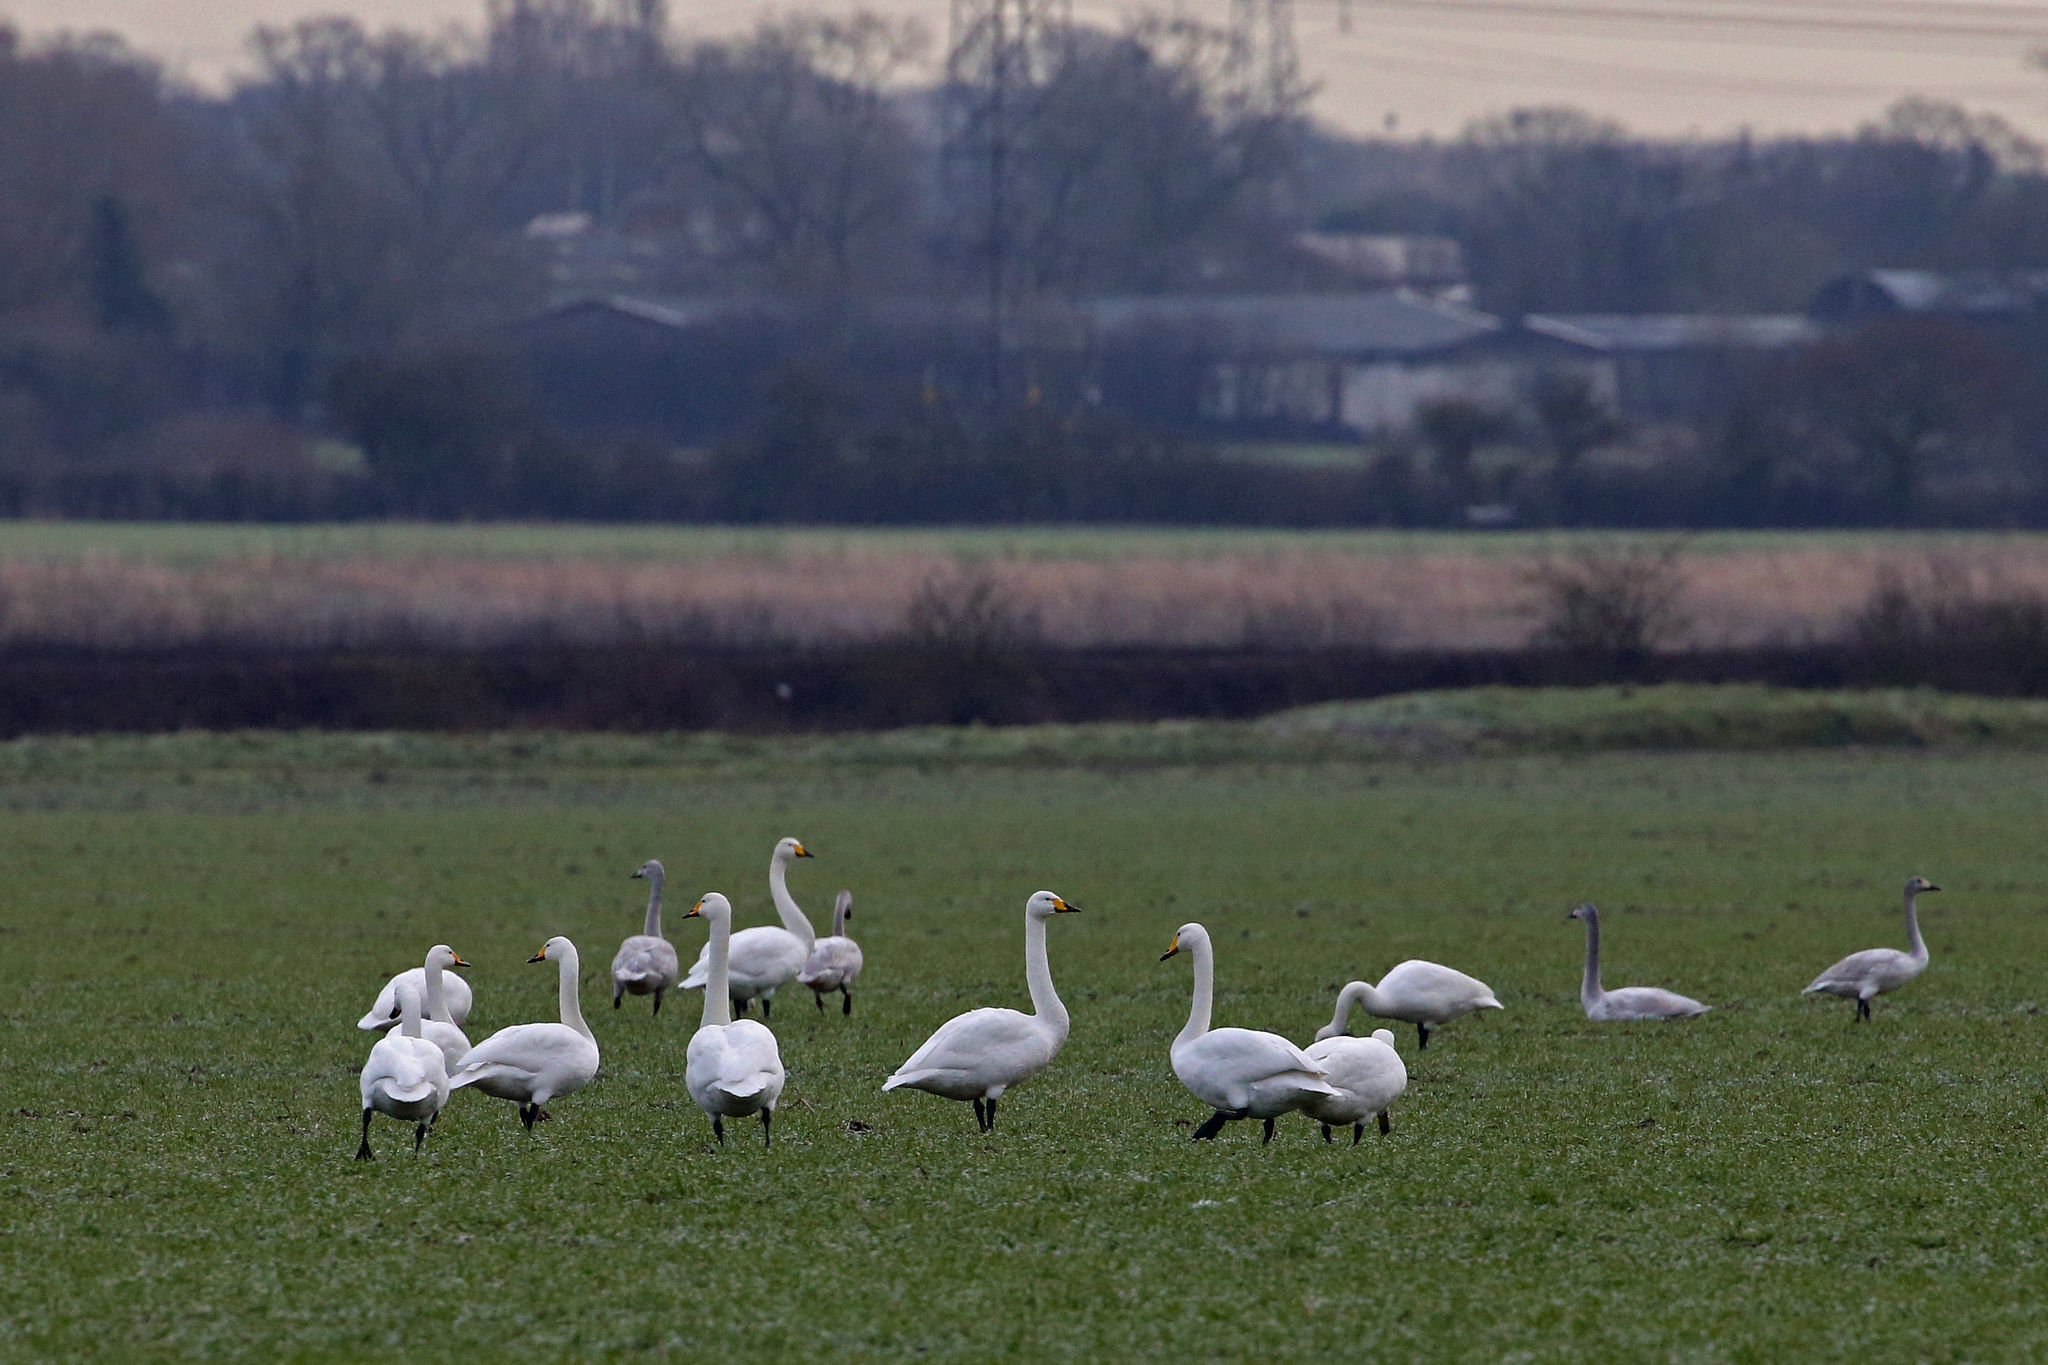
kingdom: Animalia
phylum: Chordata
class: Aves
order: Anseriformes
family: Anatidae
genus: Cygnus
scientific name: Cygnus cygnus
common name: Whooper swan
